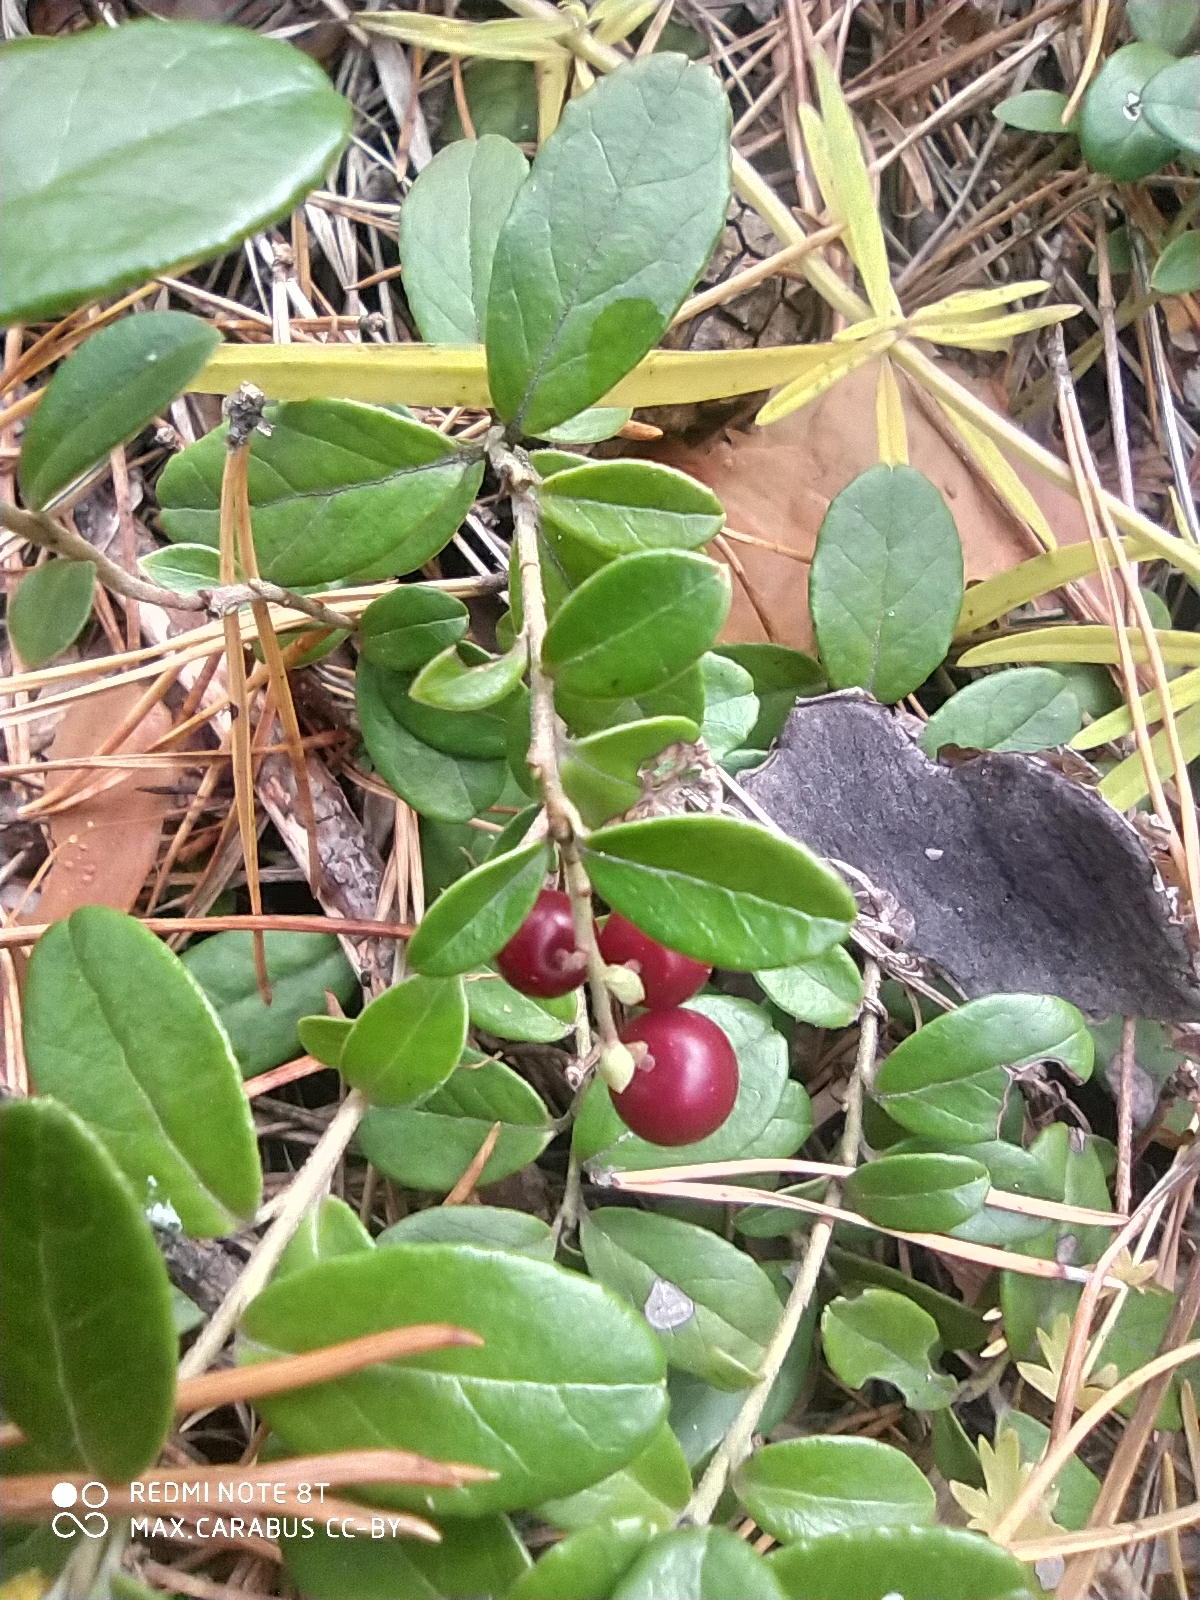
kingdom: Plantae
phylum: Tracheophyta
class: Magnoliopsida
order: Ericales
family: Ericaceae
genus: Vaccinium
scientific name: Vaccinium vitis-idaea
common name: Cowberry
